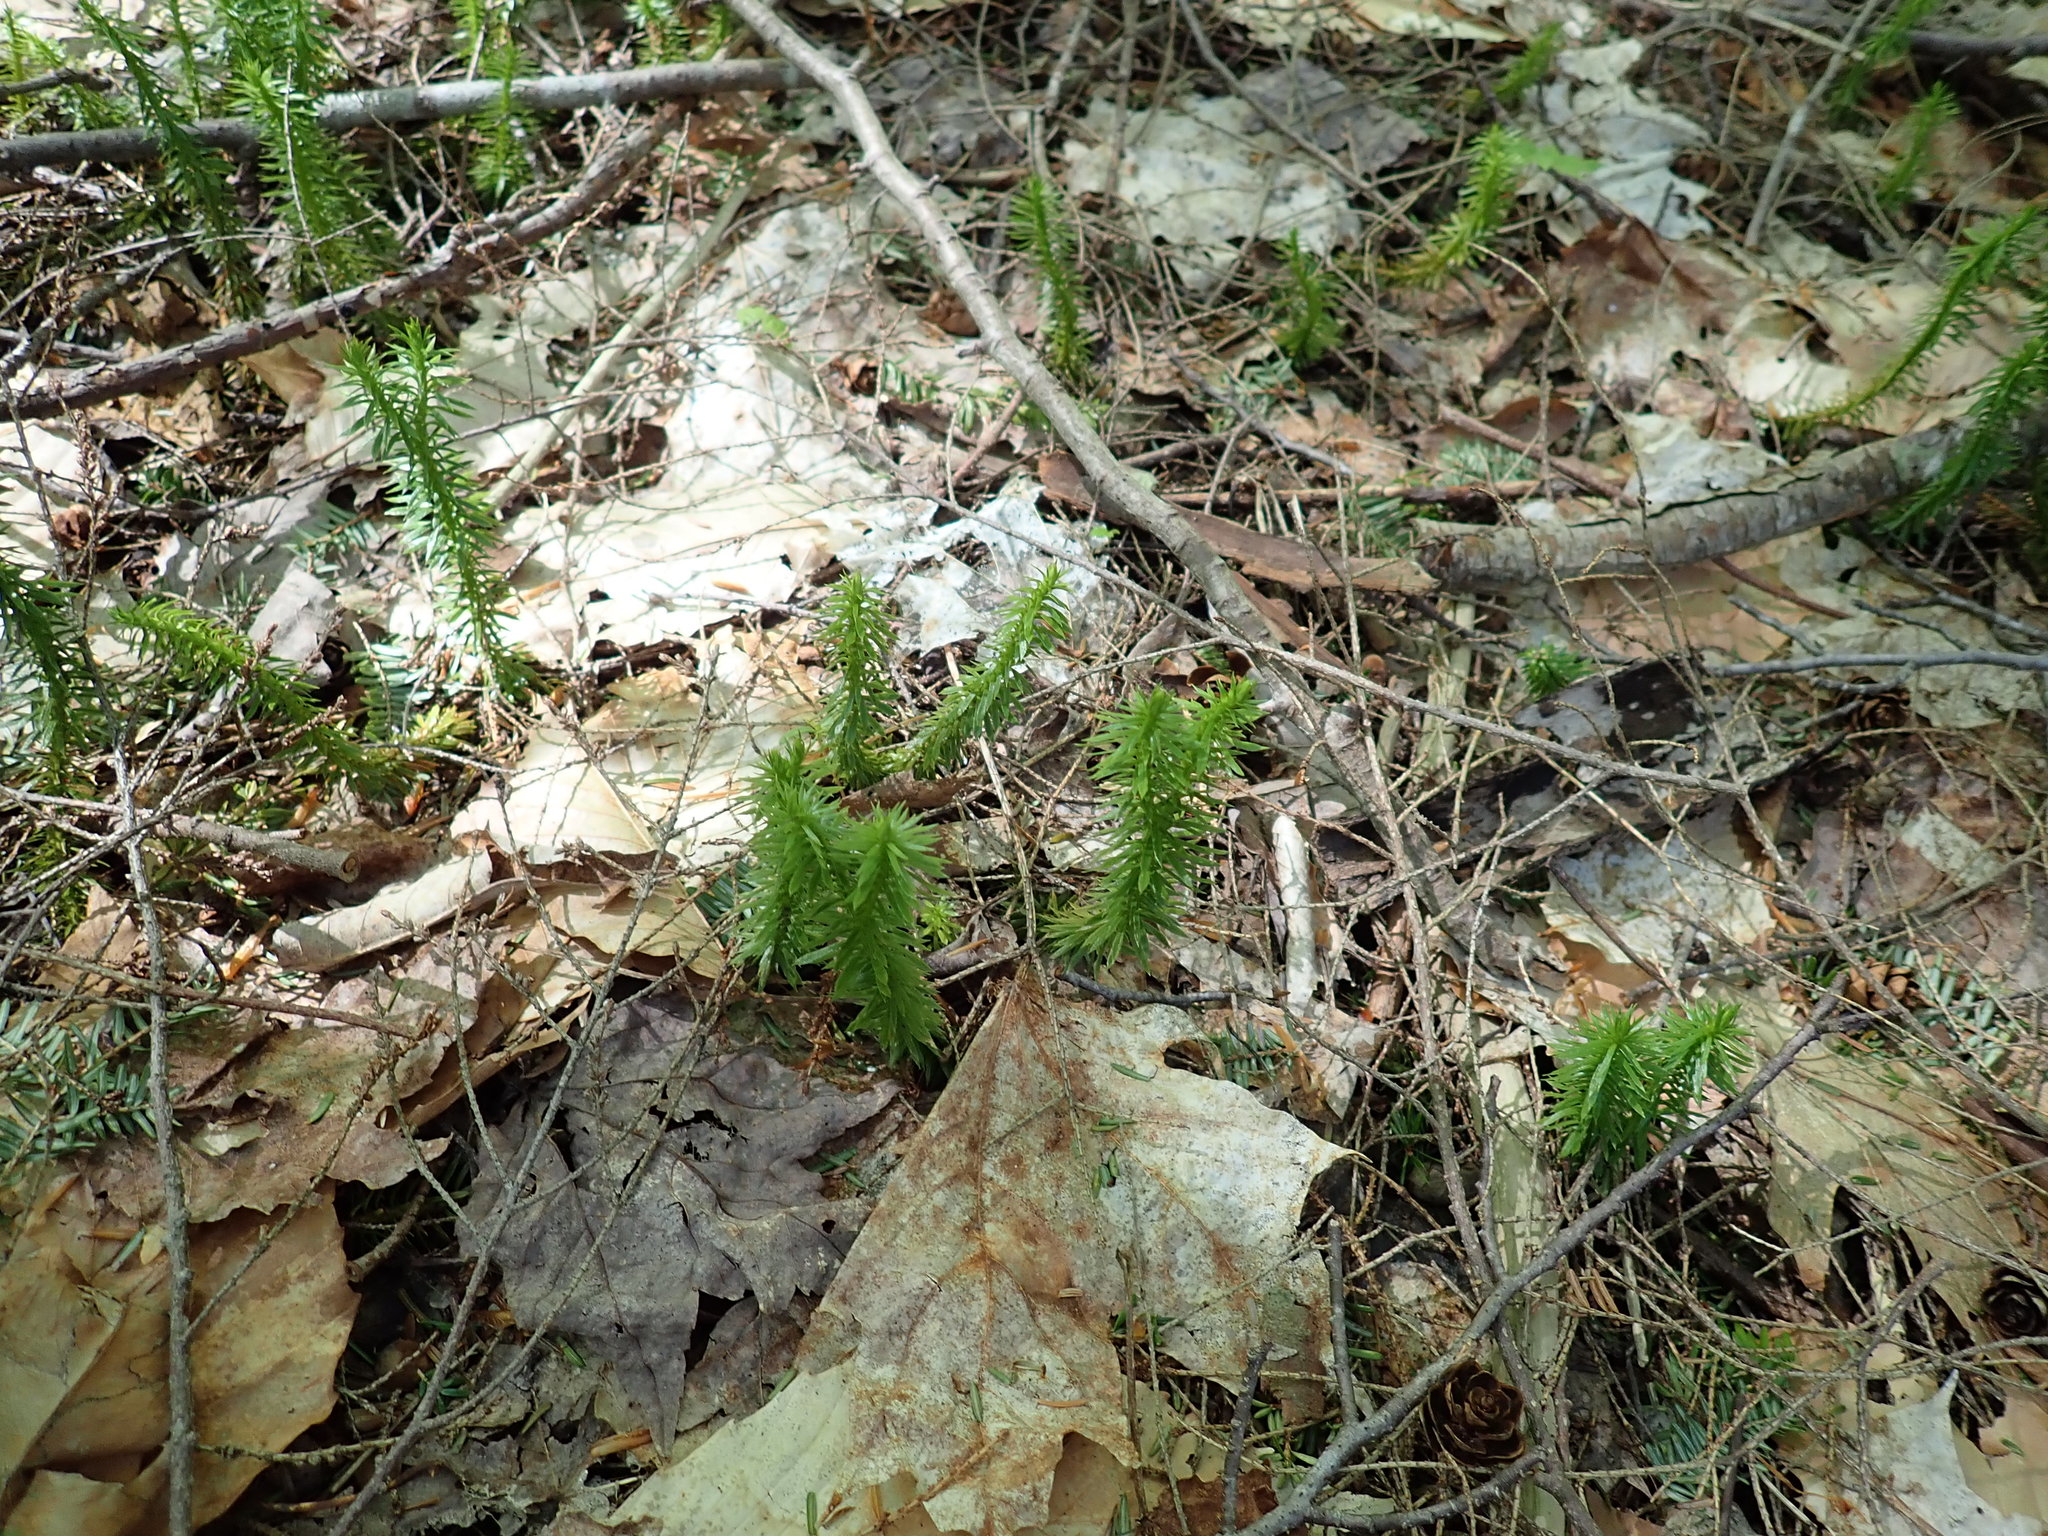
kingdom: Plantae
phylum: Tracheophyta
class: Lycopodiopsida
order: Lycopodiales
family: Lycopodiaceae
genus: Huperzia
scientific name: Huperzia lucidula
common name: Shining clubmoss
